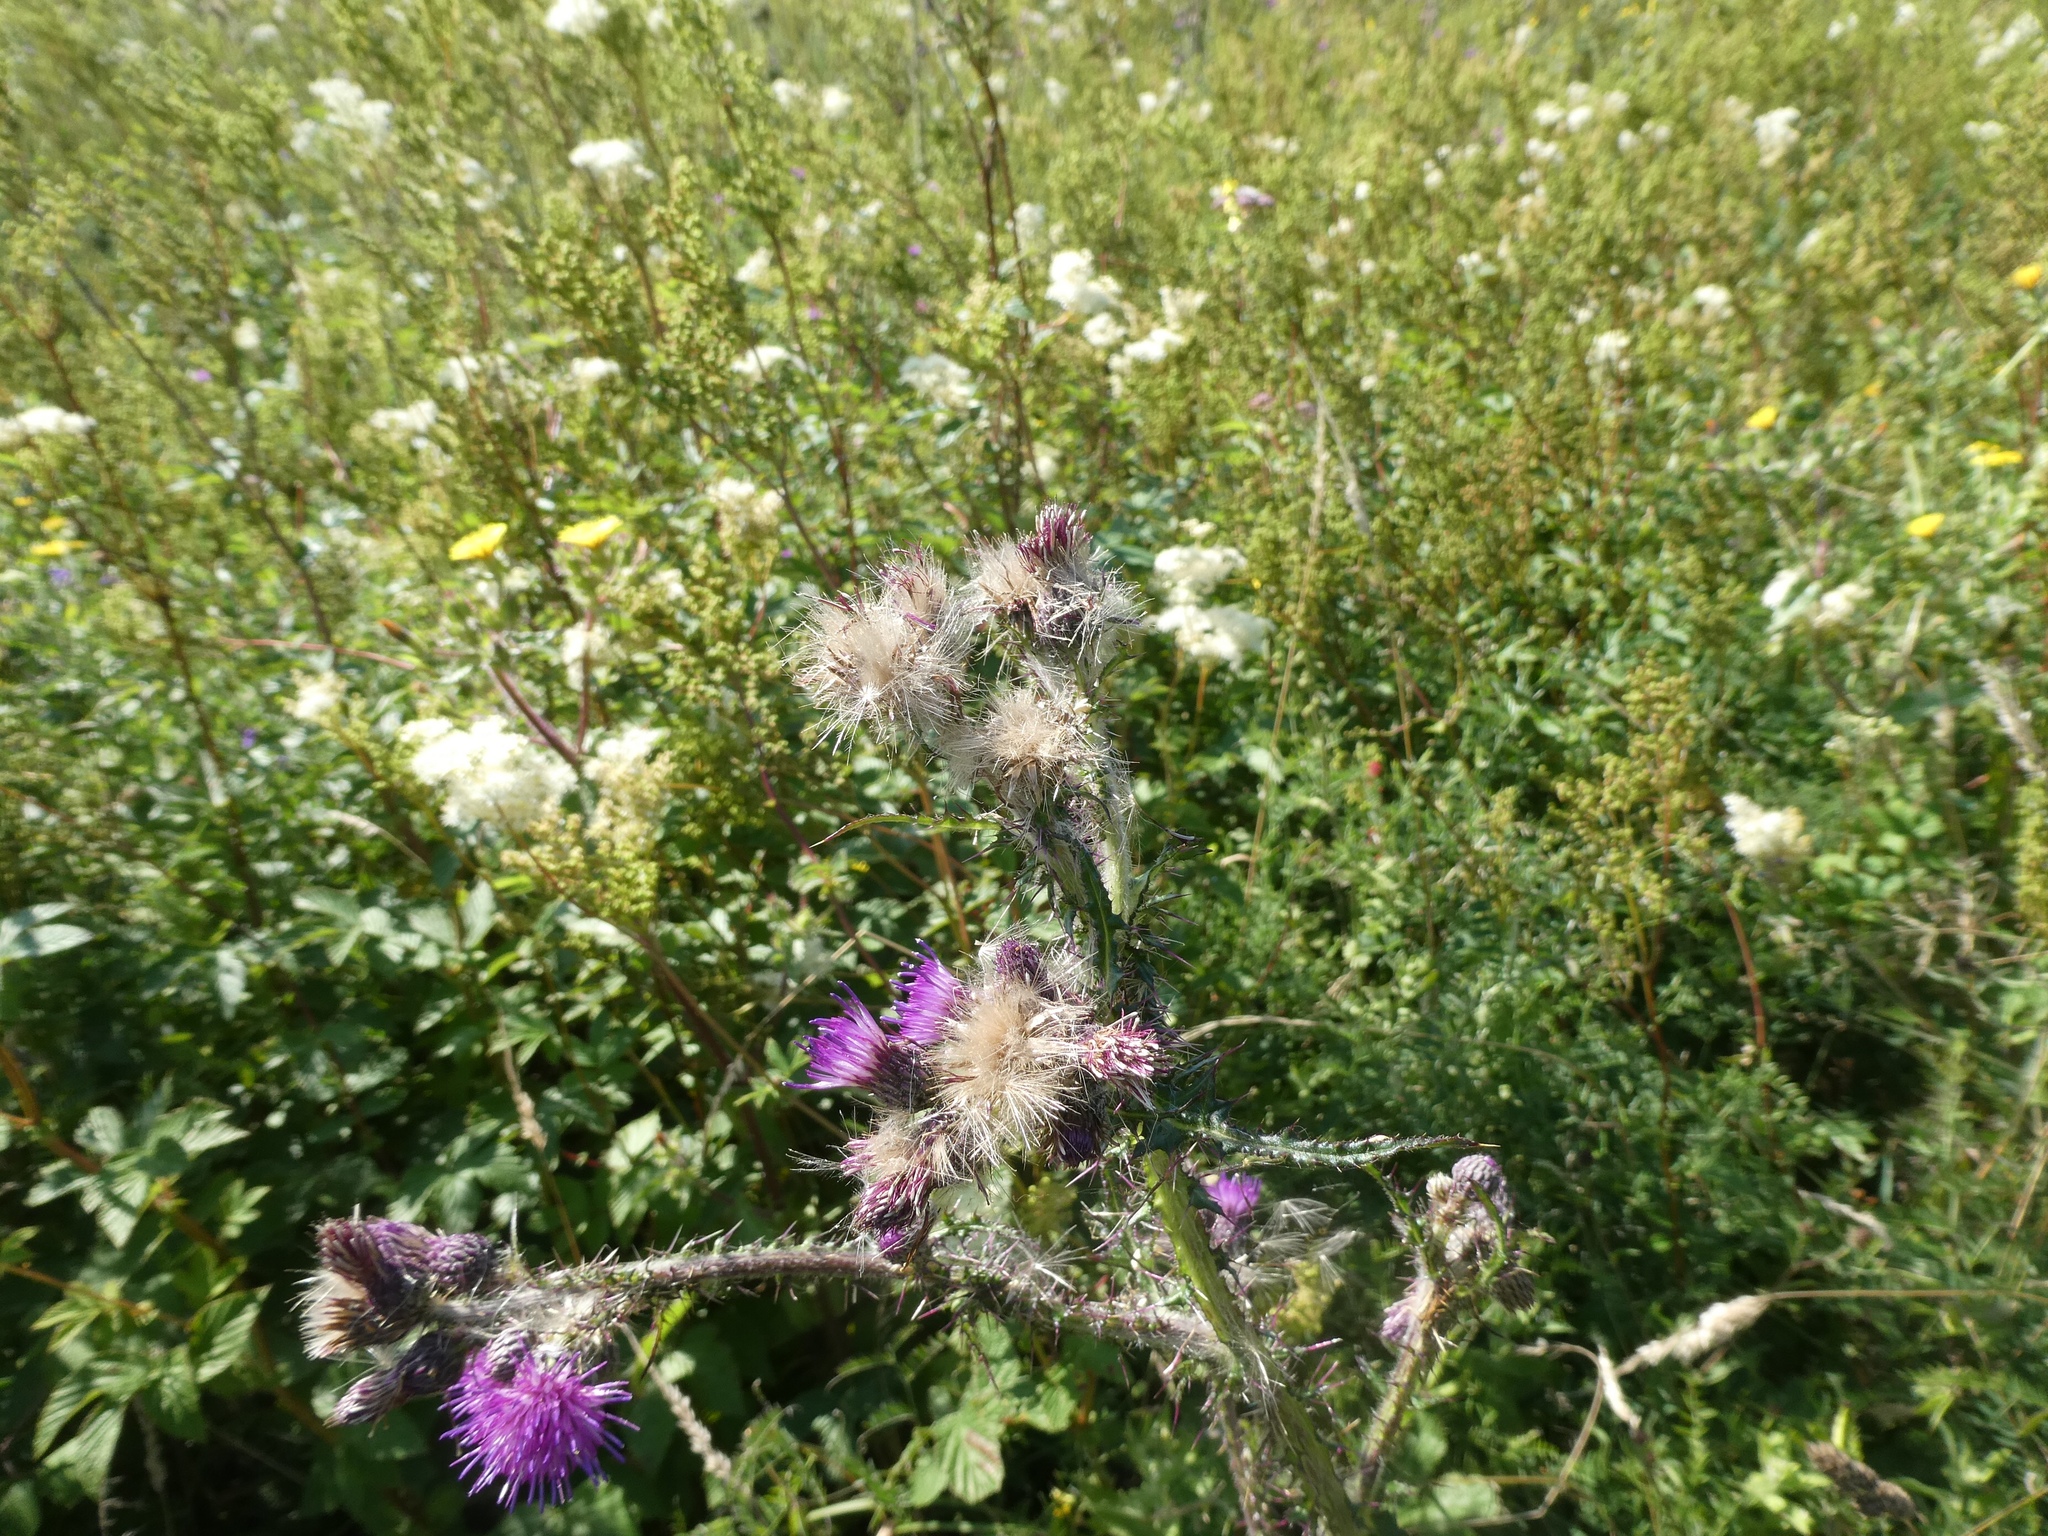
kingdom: Plantae
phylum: Tracheophyta
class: Magnoliopsida
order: Asterales
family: Asteraceae
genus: Cirsium
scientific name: Cirsium palustre
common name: Marsh thistle
